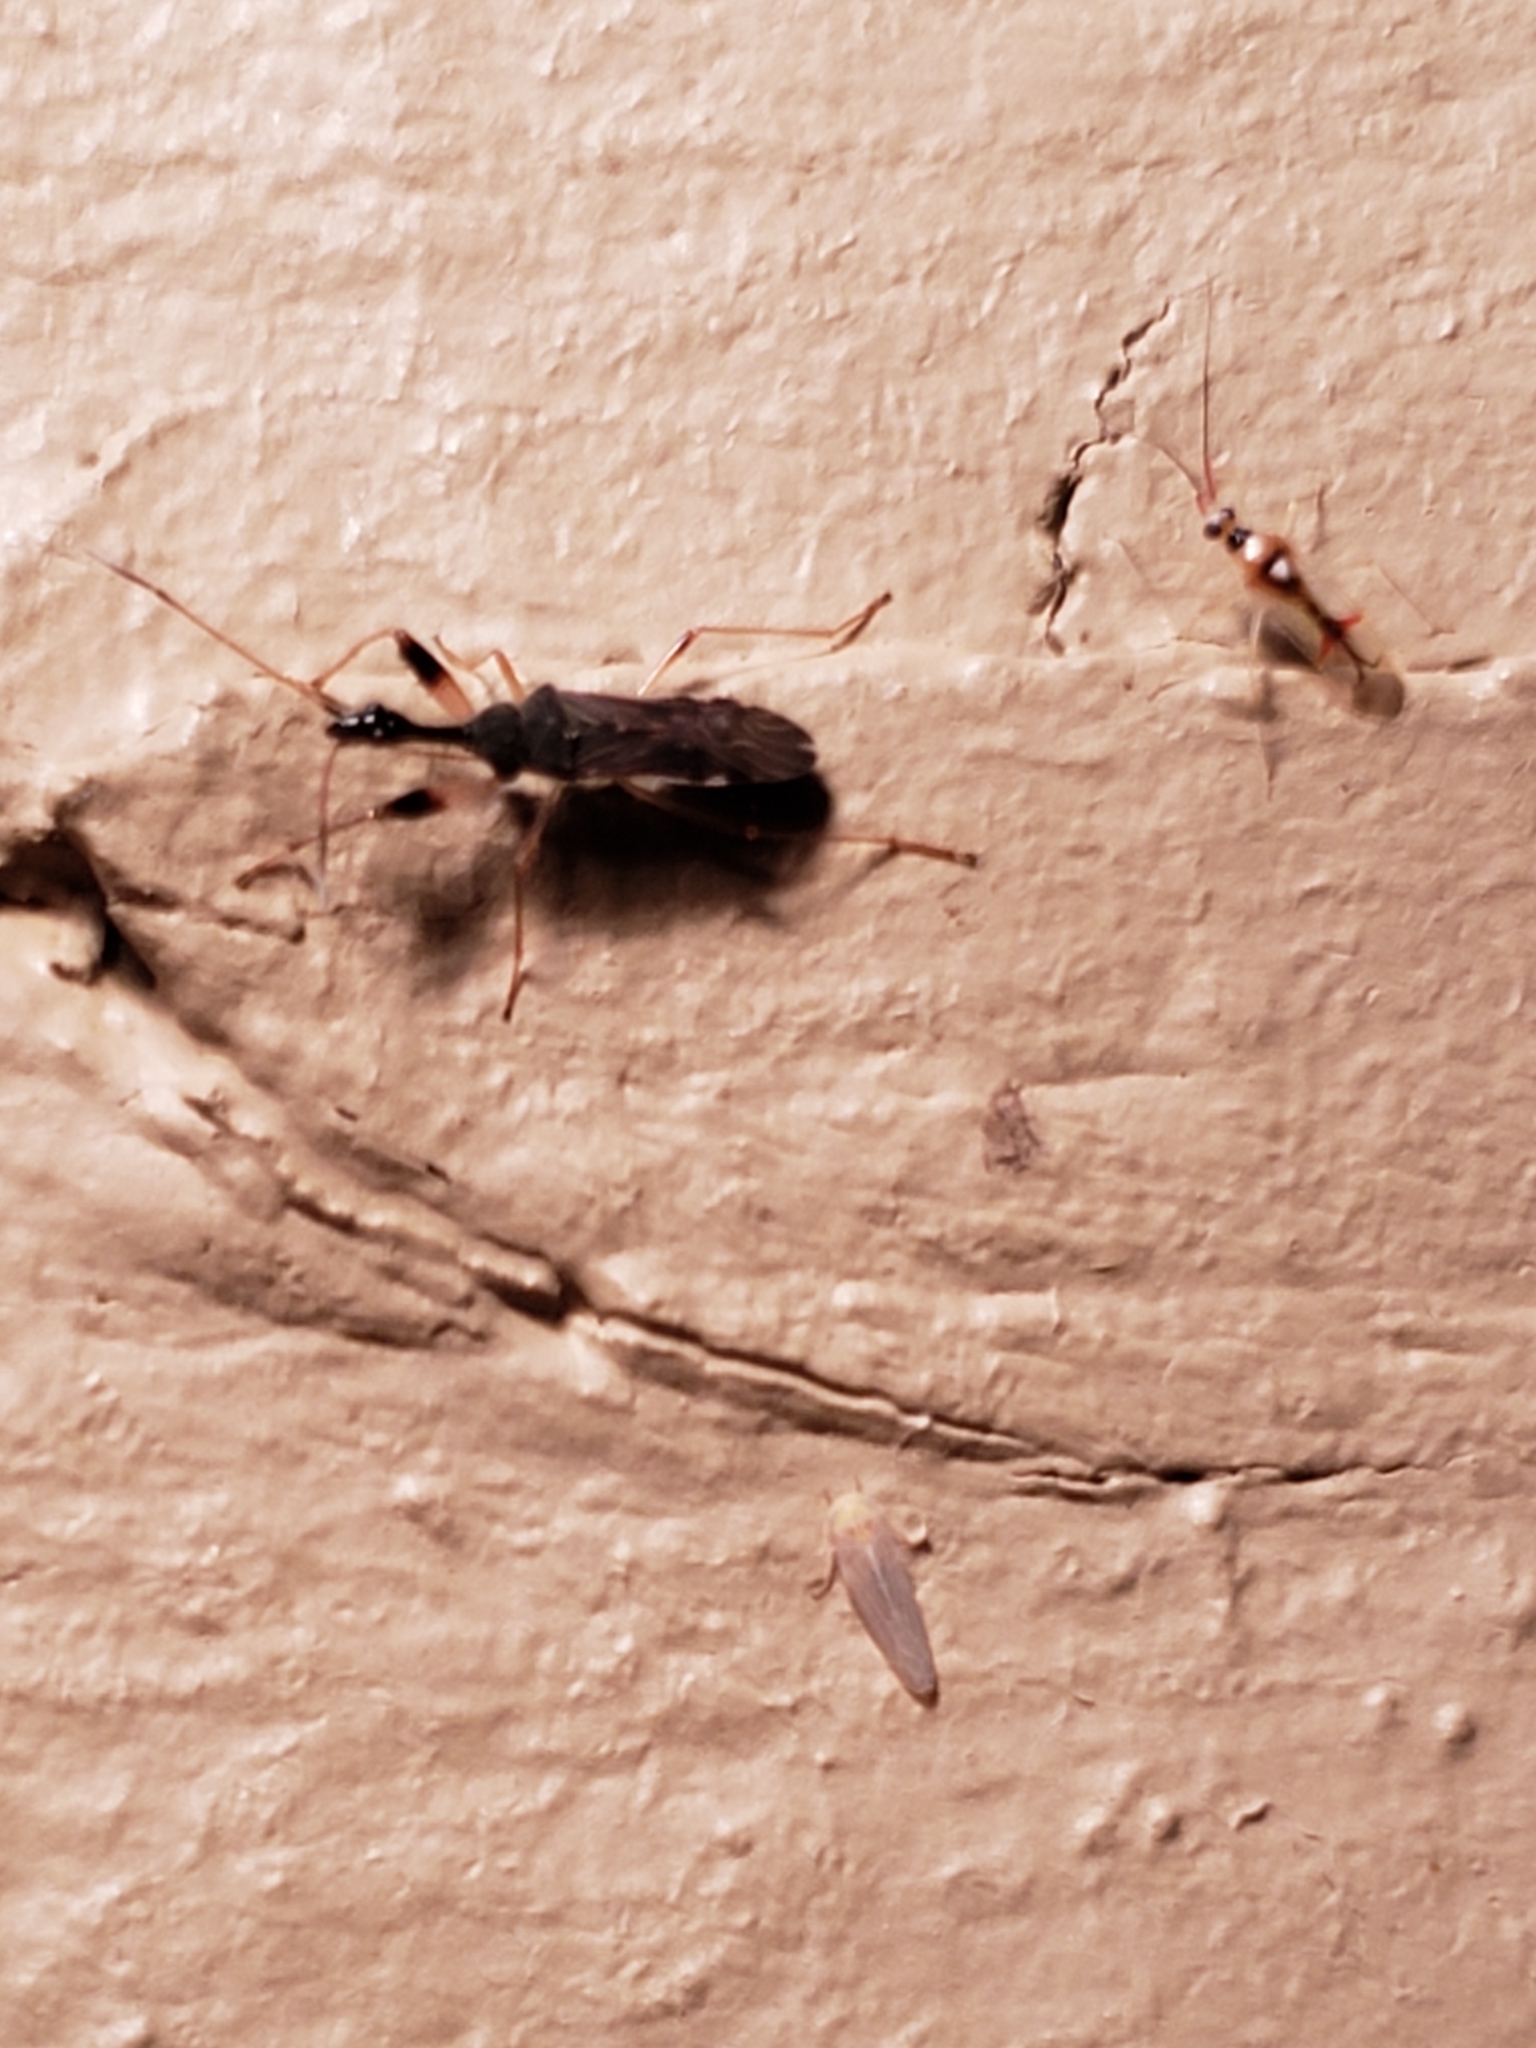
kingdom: Animalia
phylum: Arthropoda
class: Insecta
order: Hemiptera
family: Rhyparochromidae
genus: Myodocha
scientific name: Myodocha serripes
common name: Long-necked seed bug
